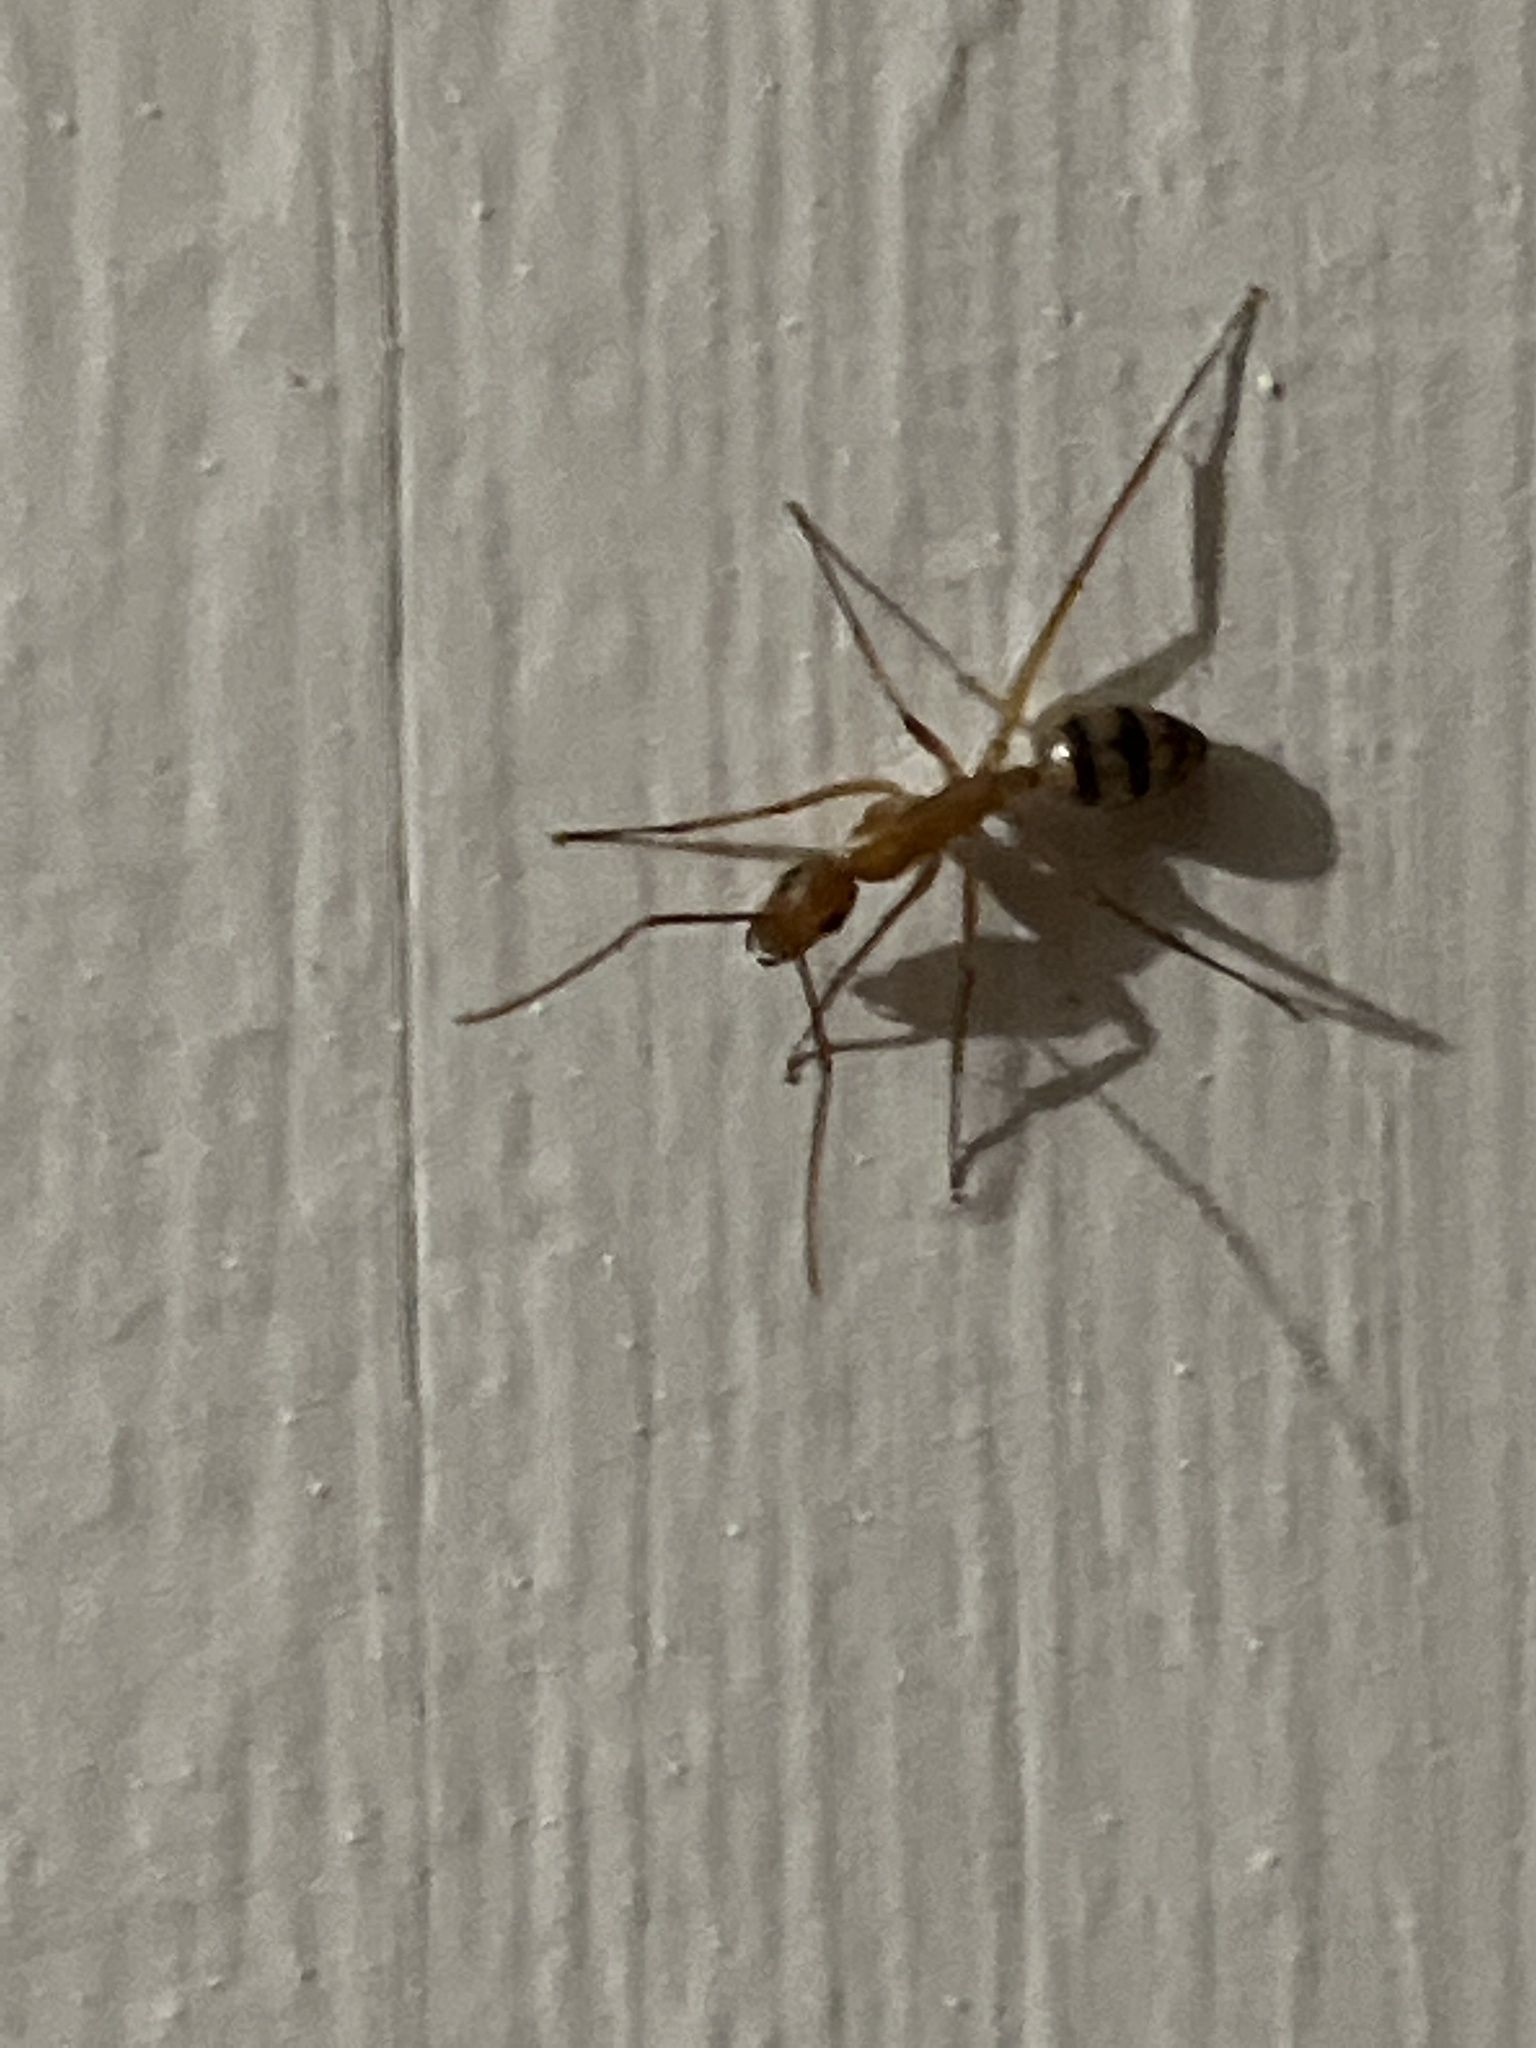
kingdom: Animalia
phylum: Arthropoda
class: Insecta
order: Hymenoptera
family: Formicidae
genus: Camponotus
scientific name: Camponotus
